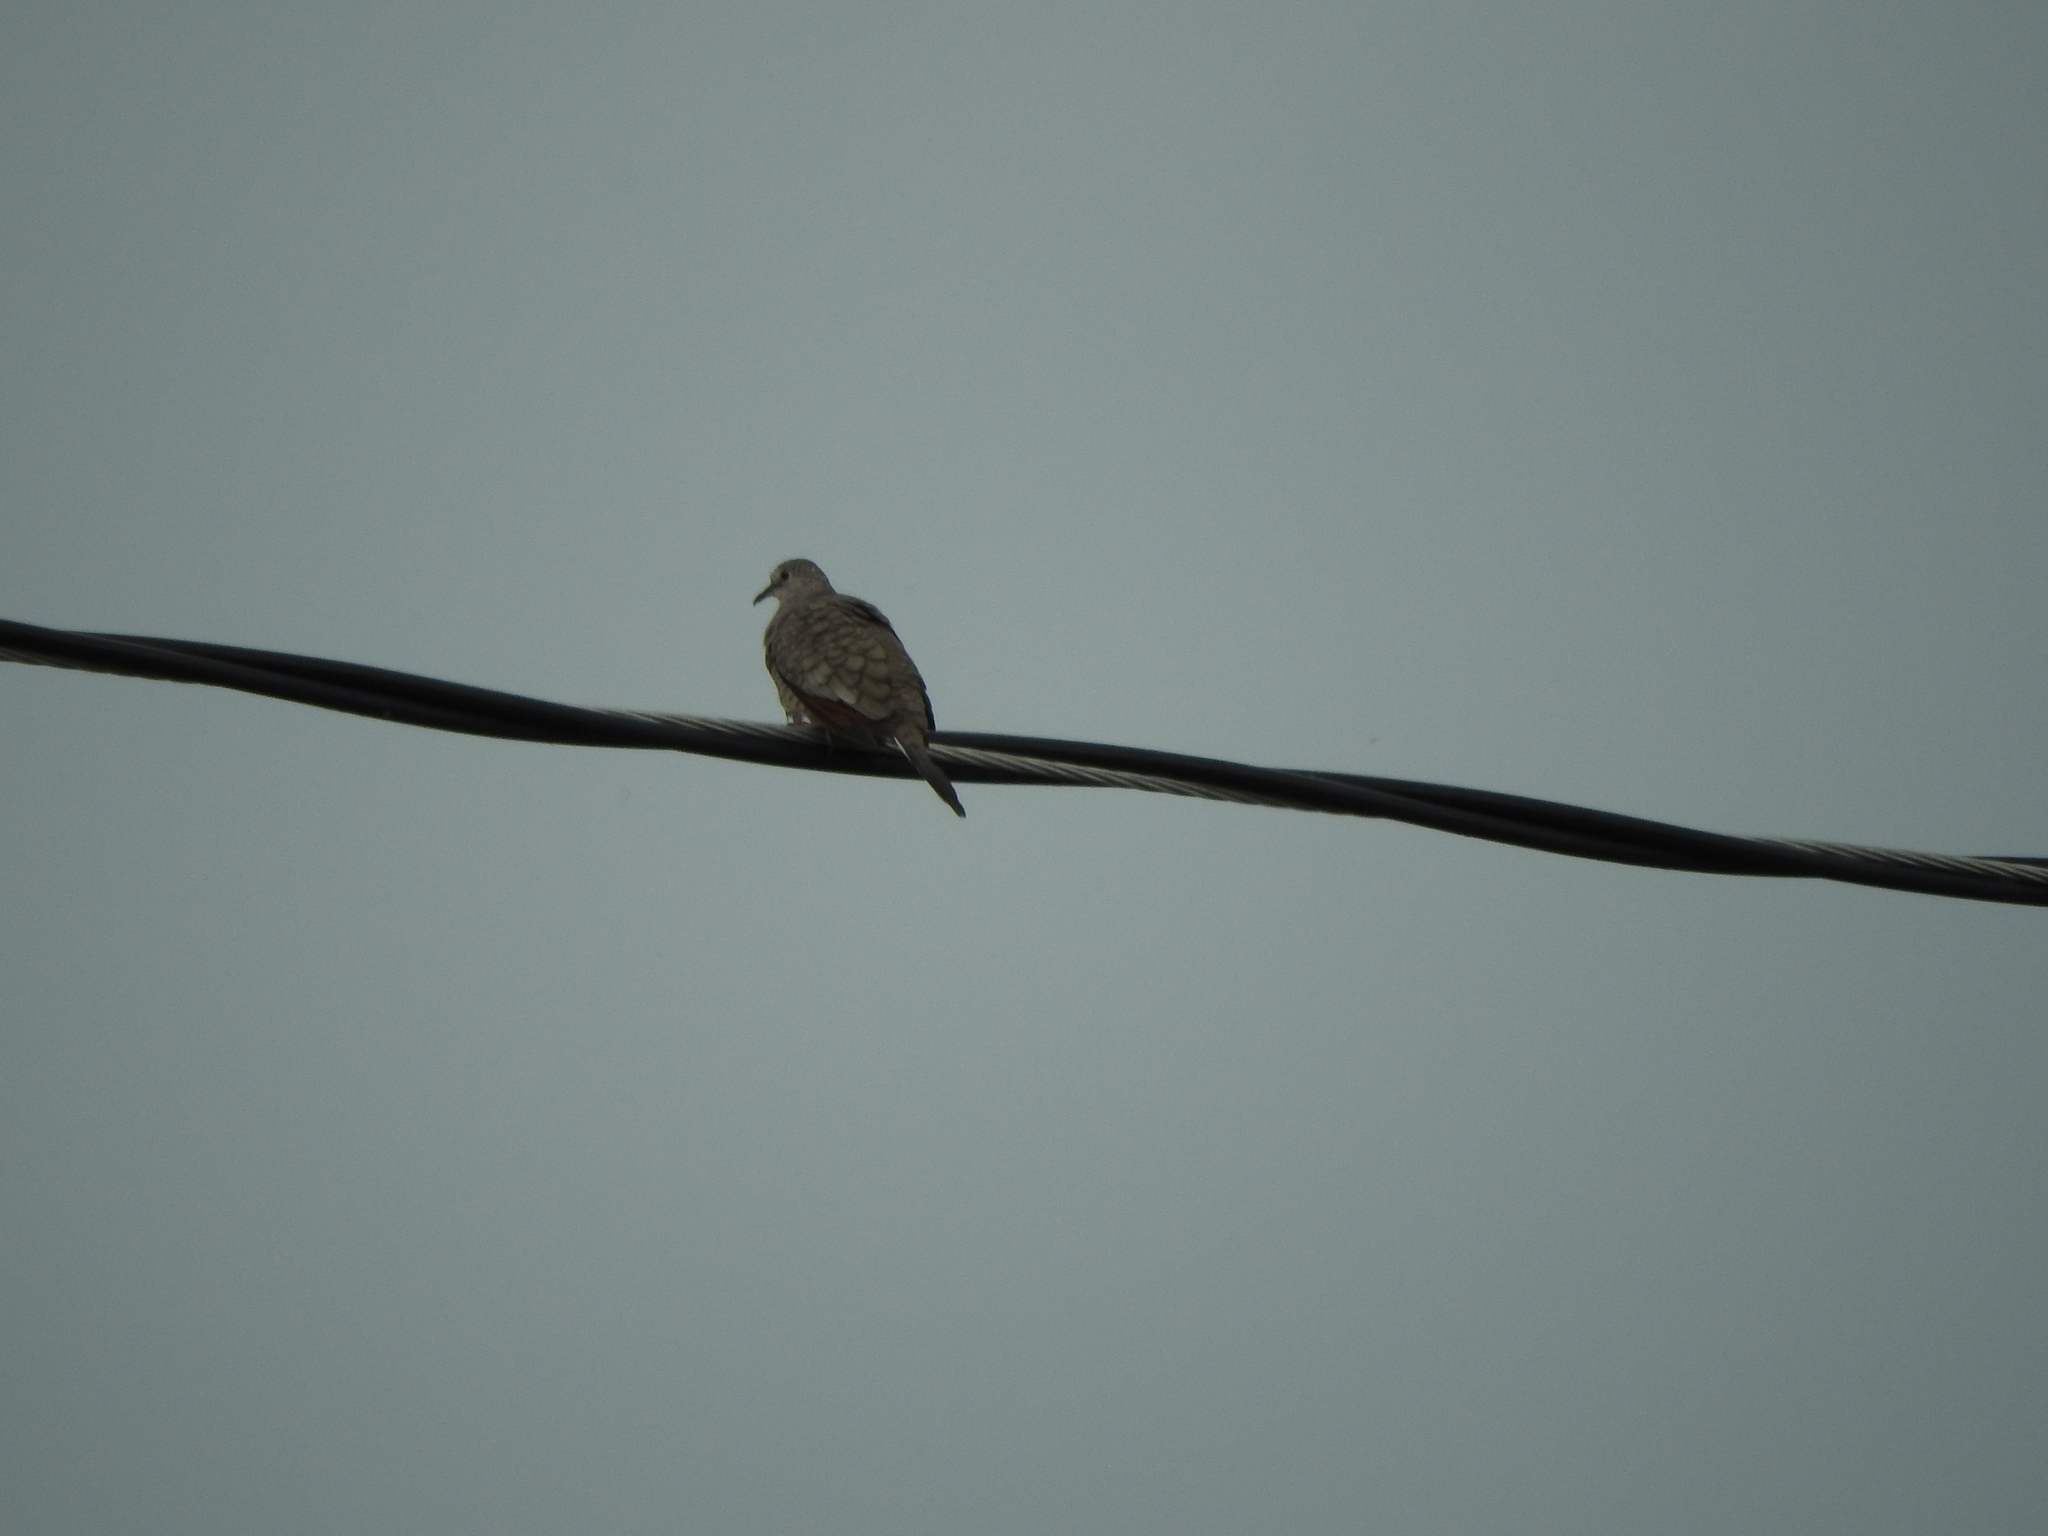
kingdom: Animalia
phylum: Chordata
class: Aves
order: Columbiformes
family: Columbidae
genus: Columbina
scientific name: Columbina inca
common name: Inca dove
